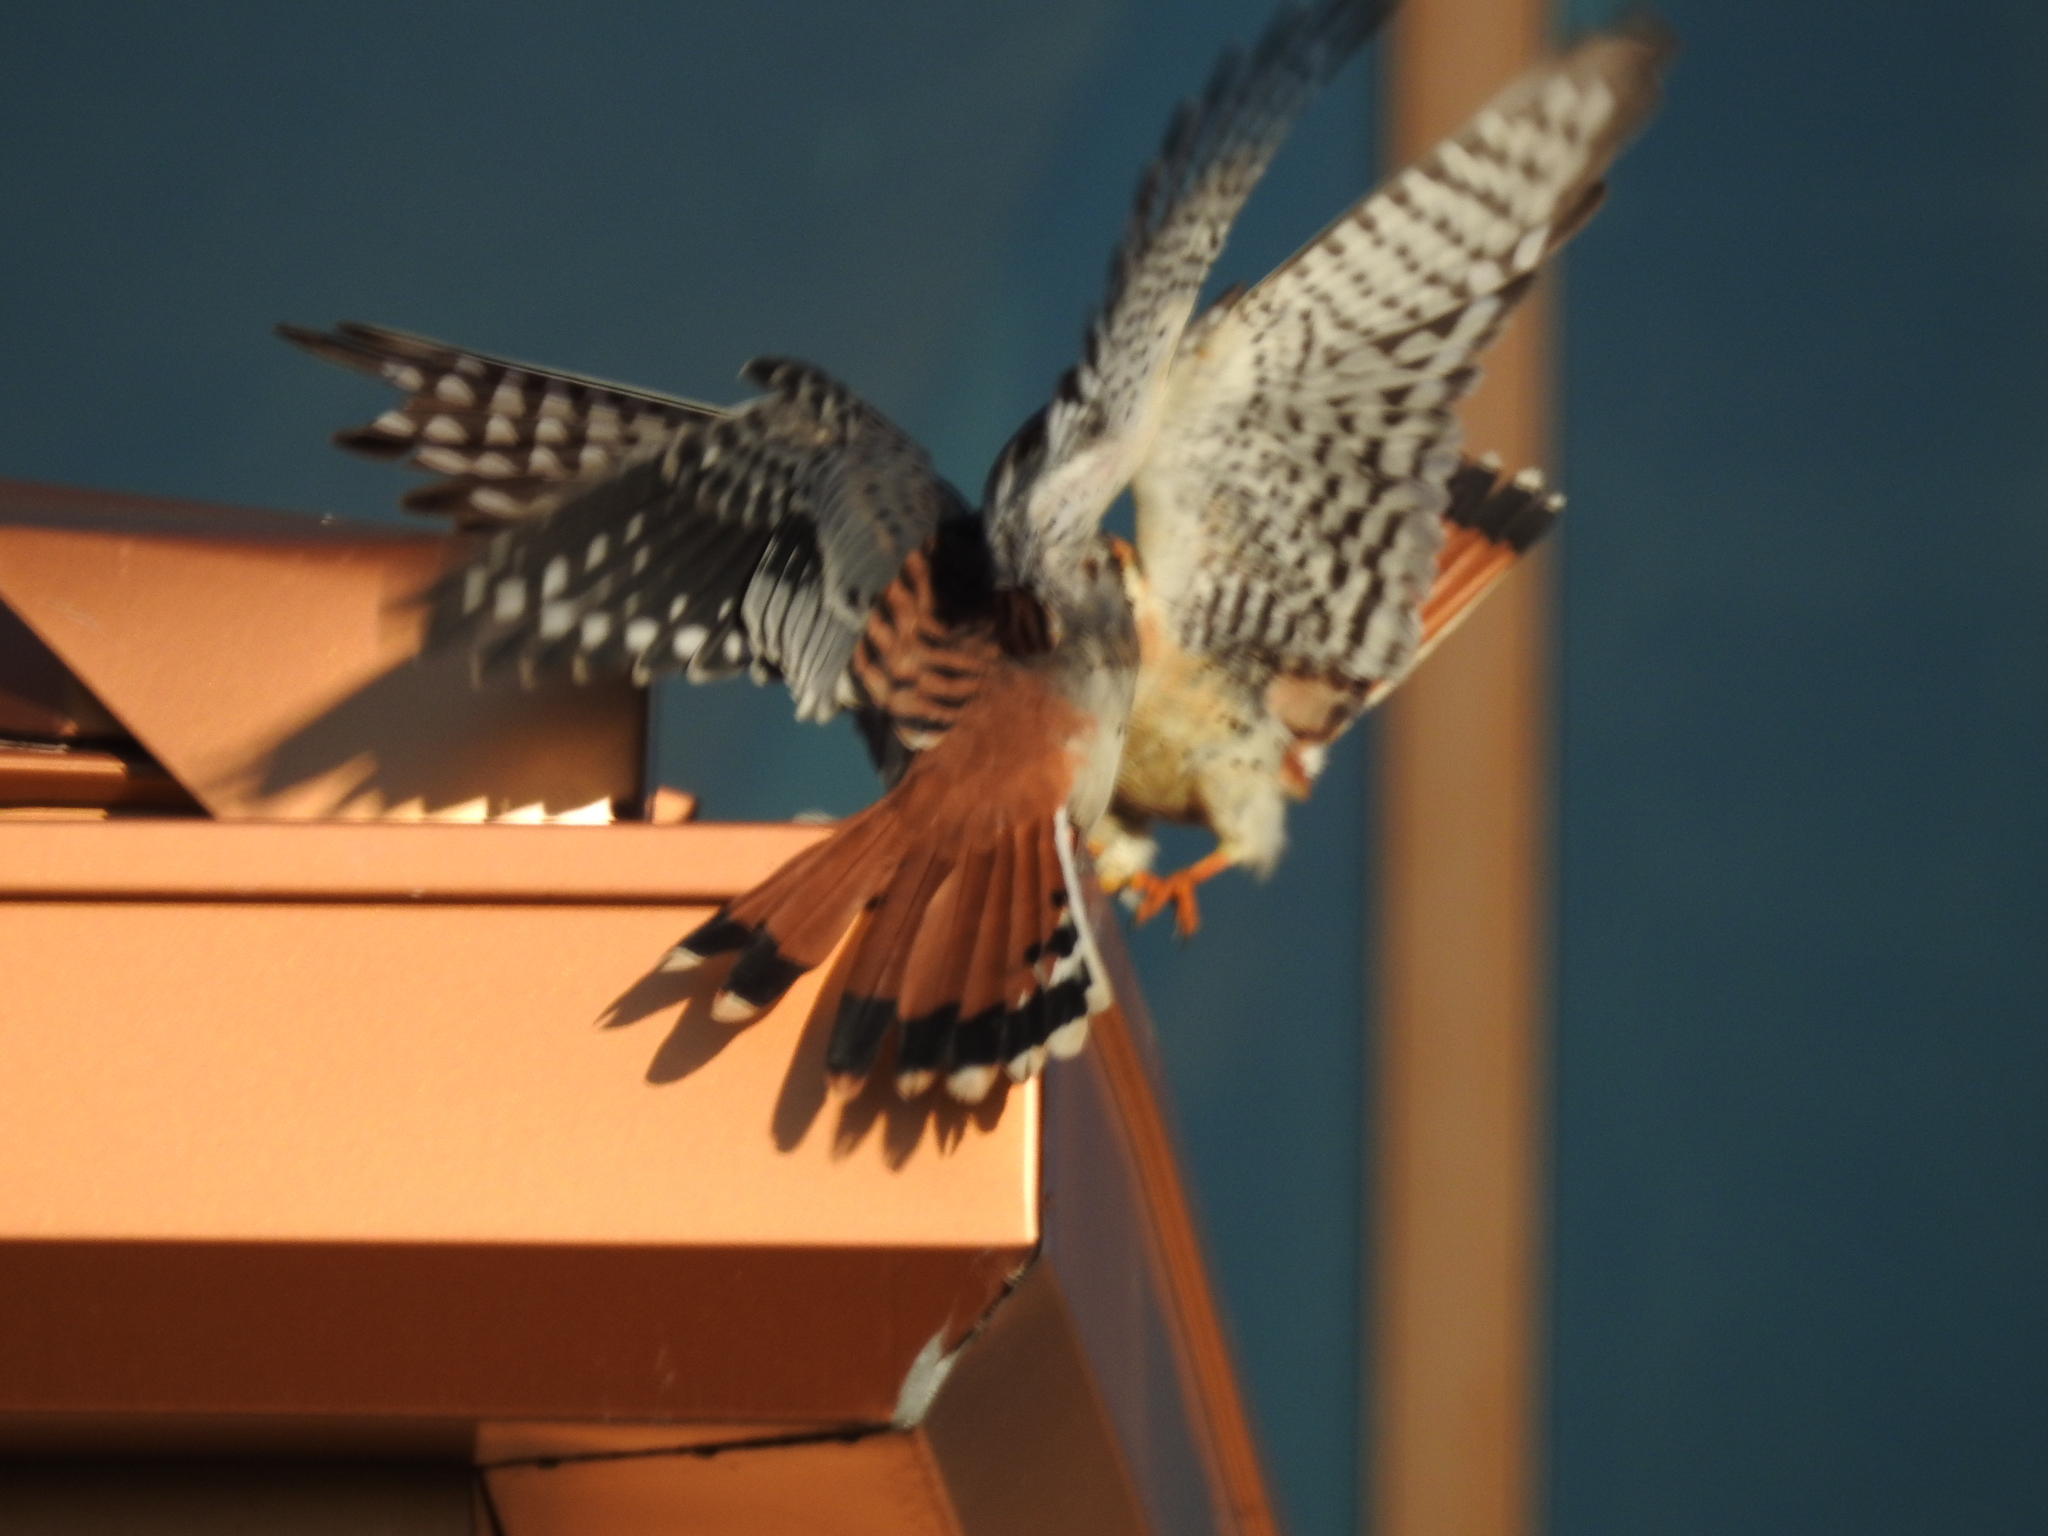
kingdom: Animalia
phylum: Chordata
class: Aves
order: Falconiformes
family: Falconidae
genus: Falco
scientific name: Falco sparverius
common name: American kestrel
